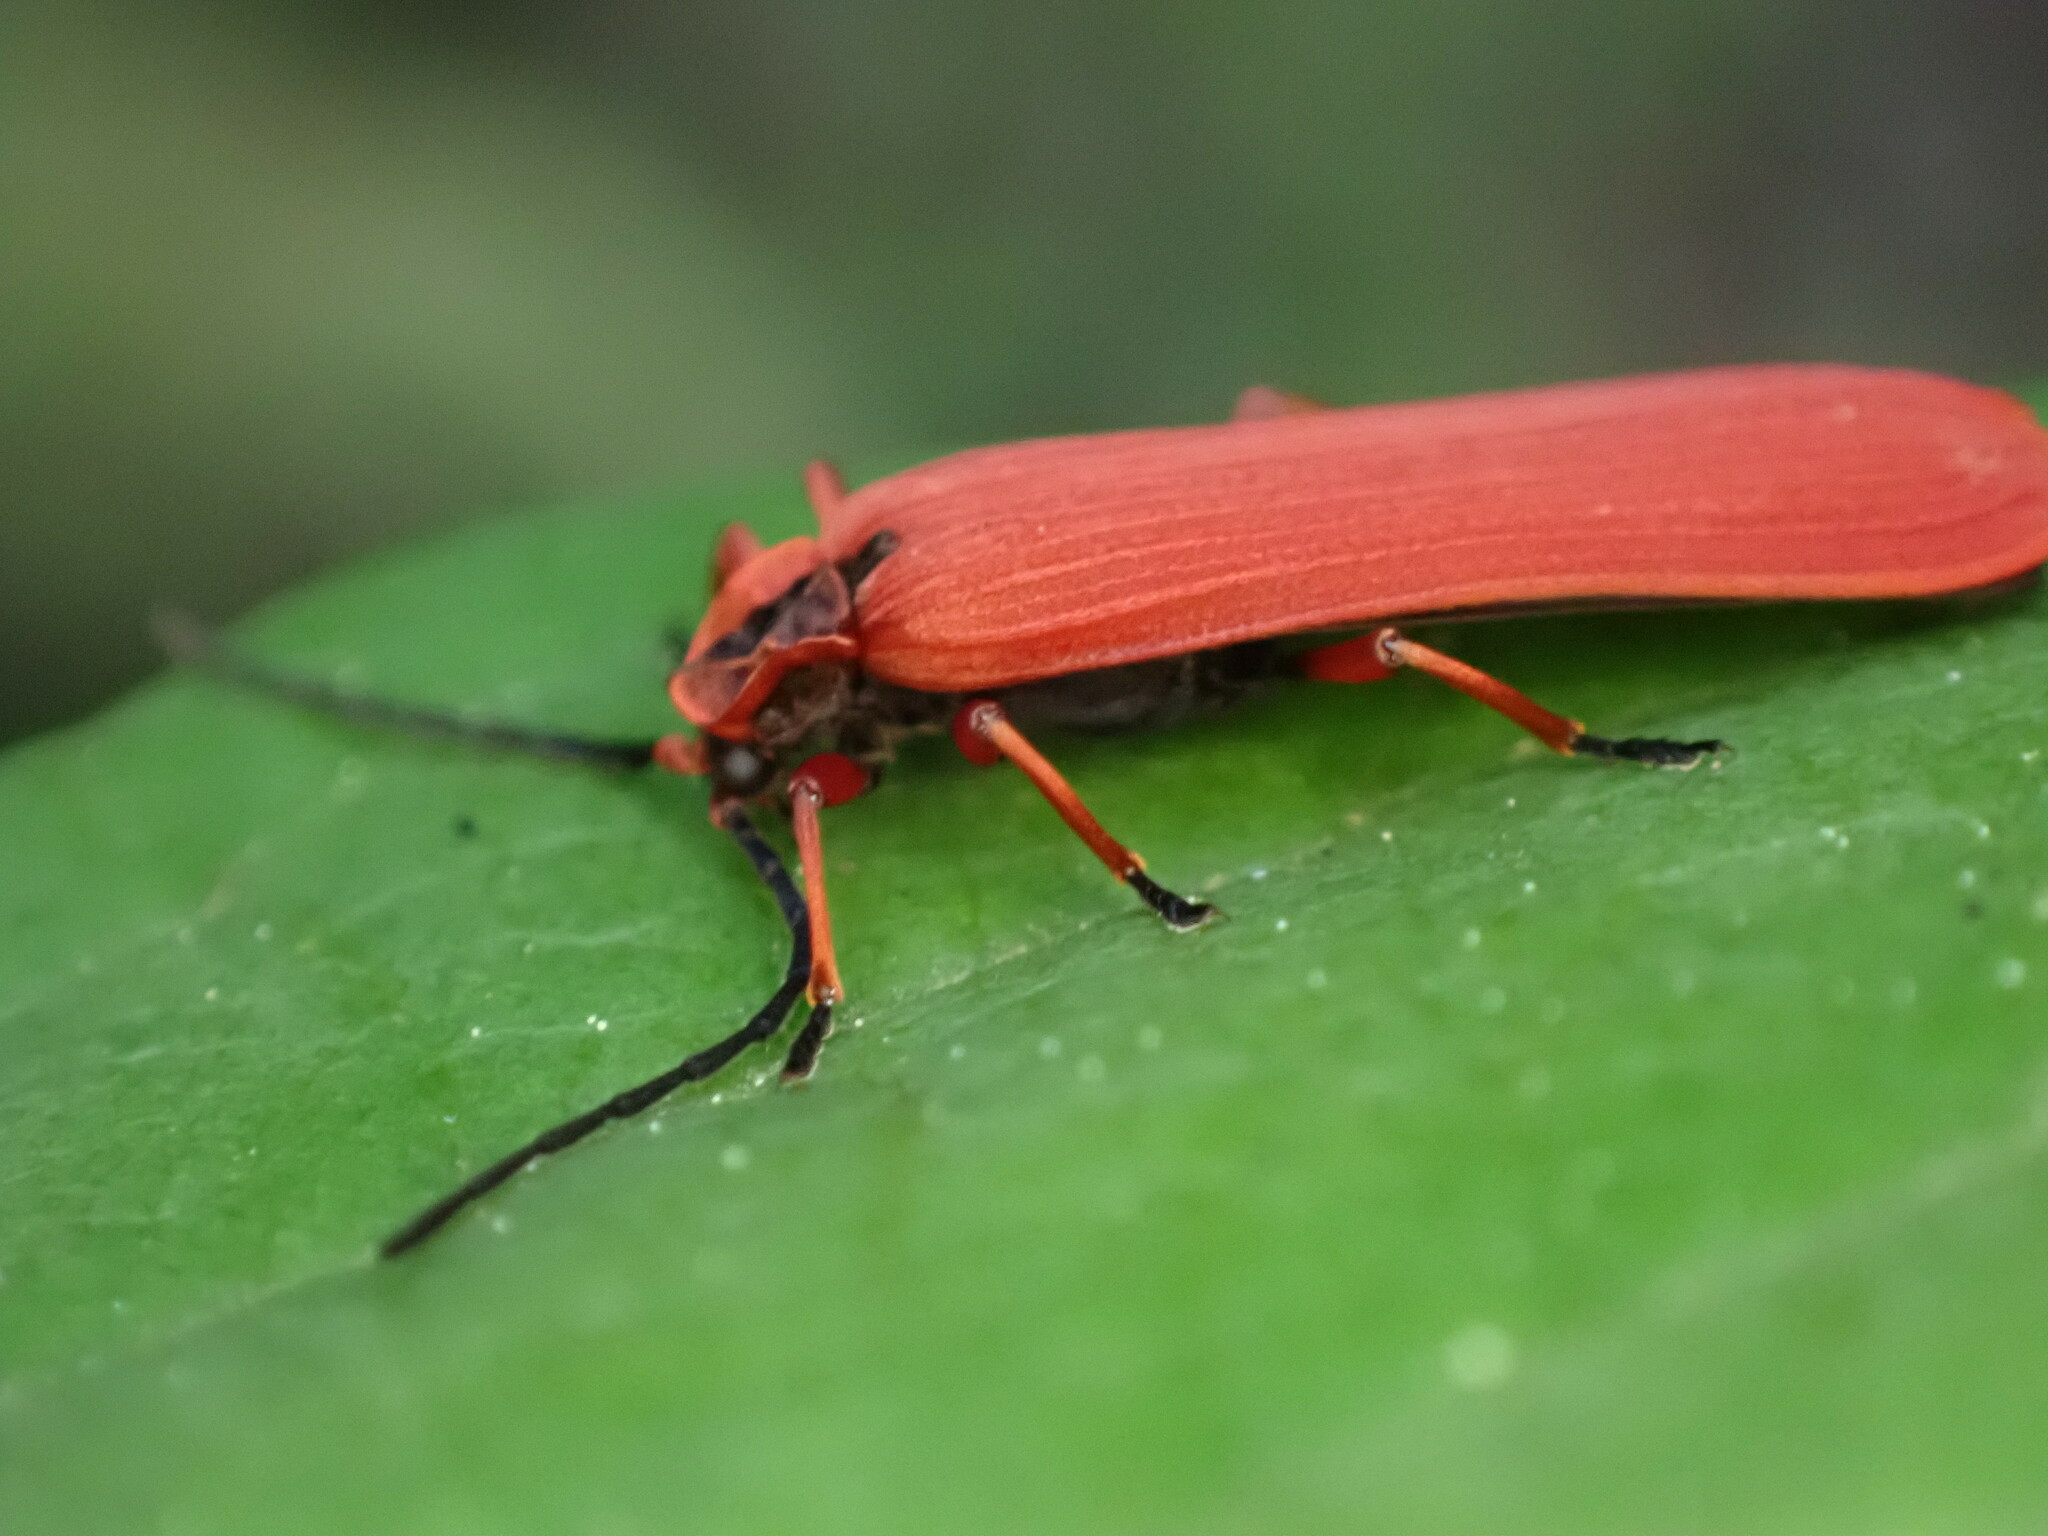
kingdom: Animalia
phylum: Arthropoda
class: Insecta
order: Coleoptera
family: Lycidae
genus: Dictyoptera
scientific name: Dictyoptera simplicipes
